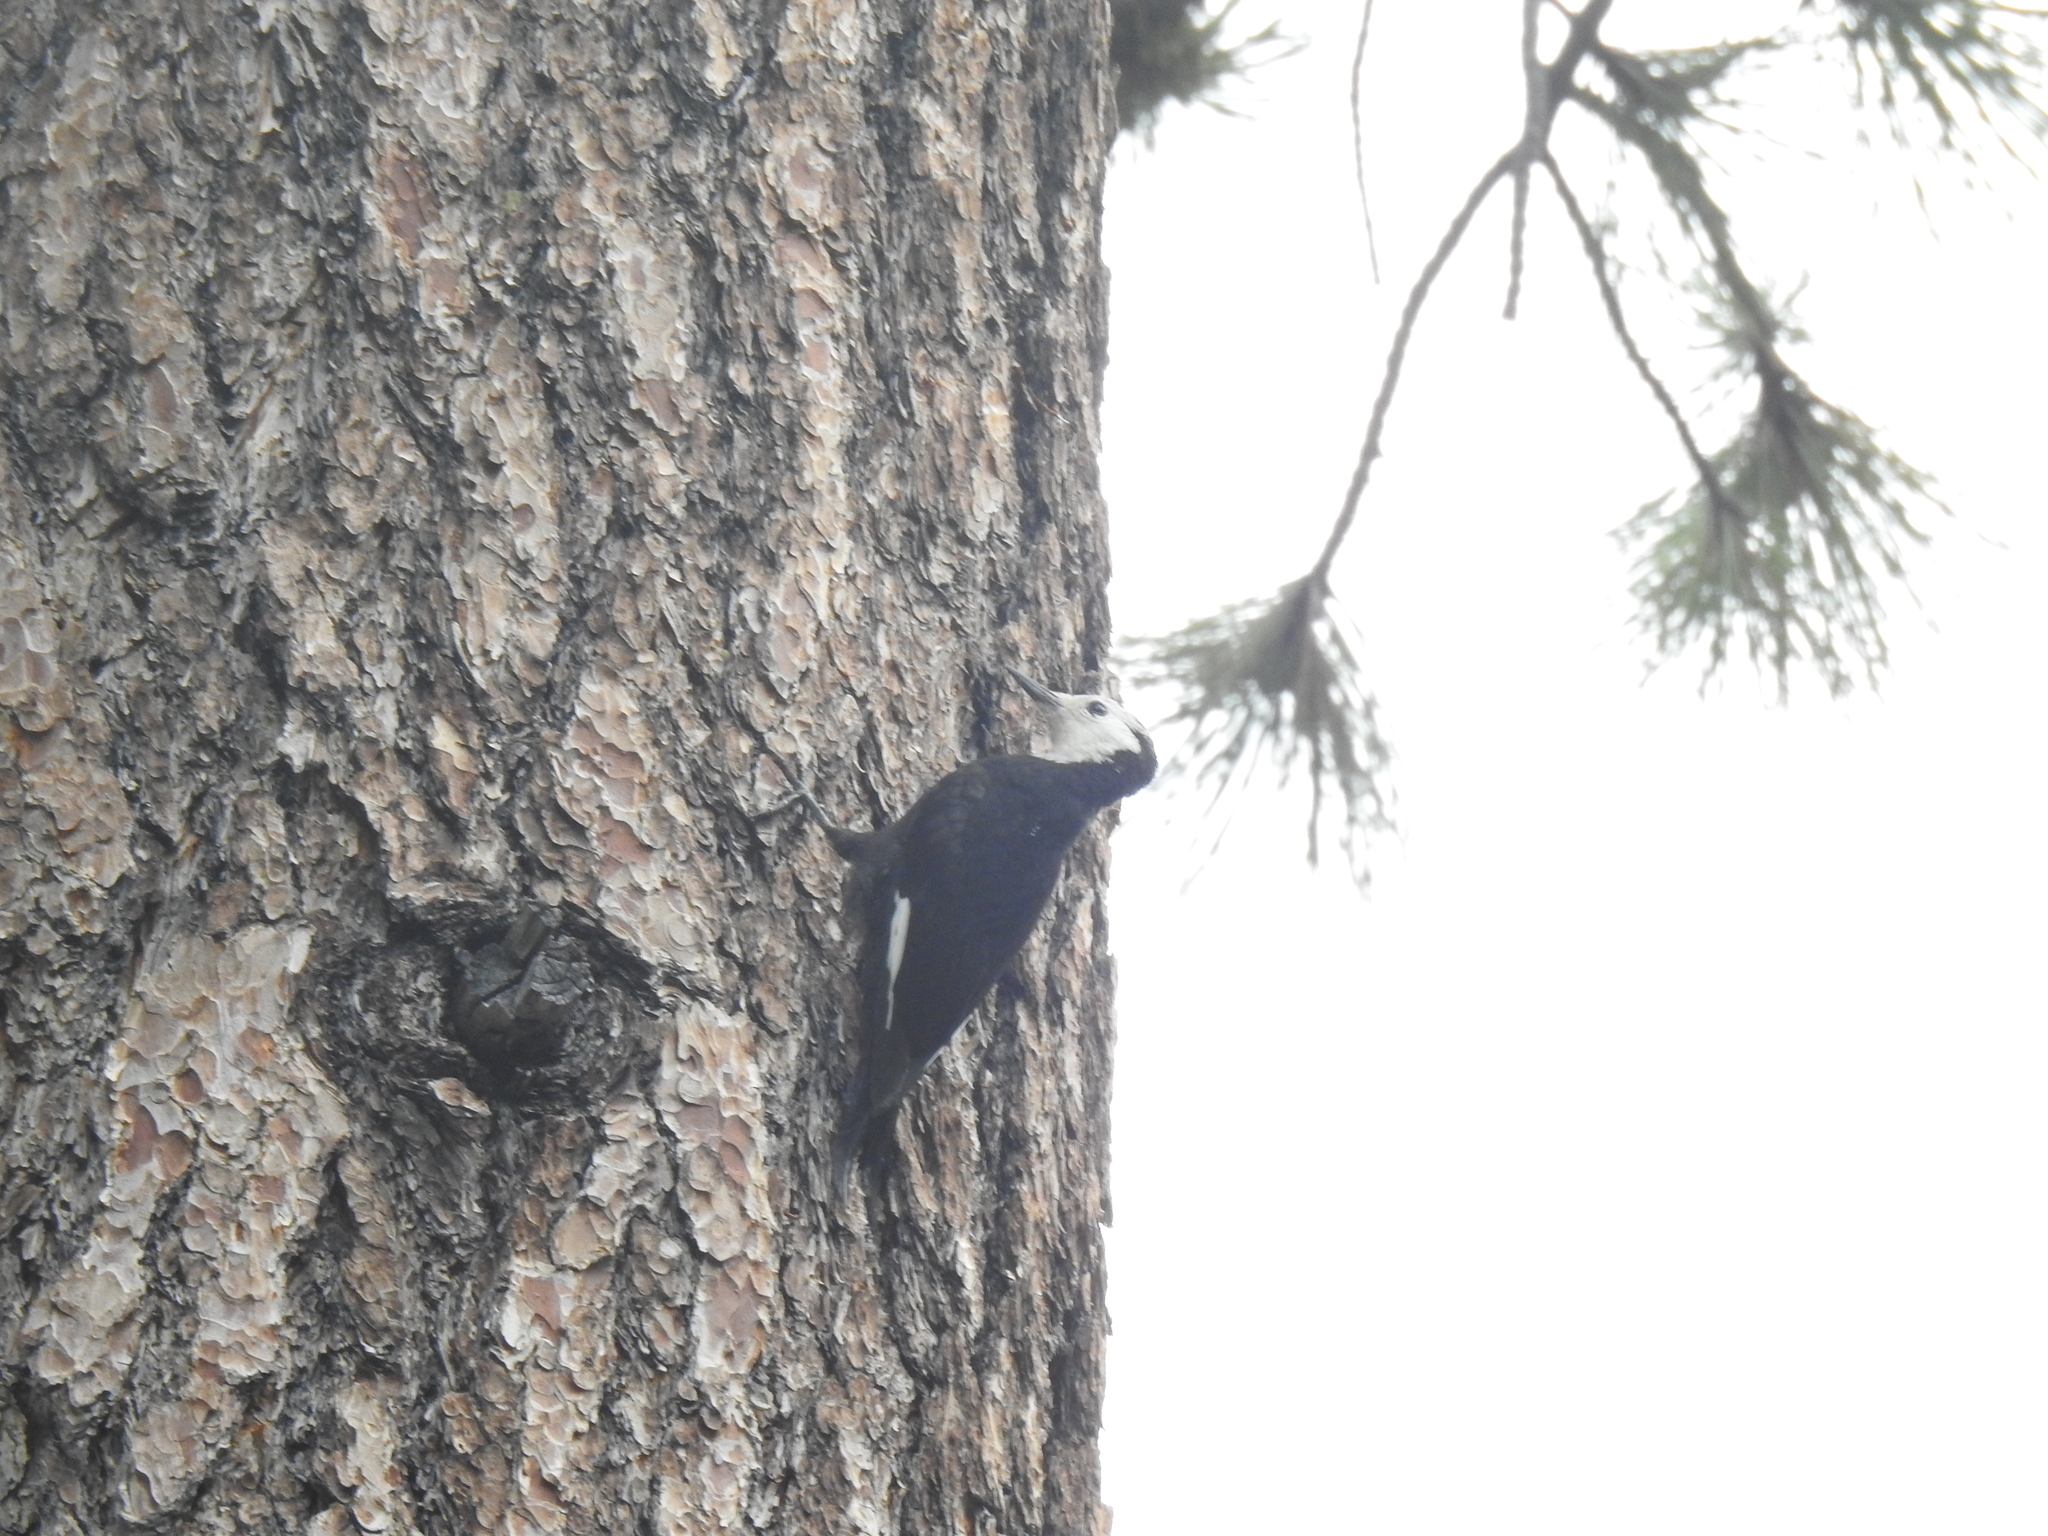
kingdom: Animalia
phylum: Chordata
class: Aves
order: Piciformes
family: Picidae
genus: Leuconotopicus
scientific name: Leuconotopicus albolarvatus
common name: White-headed woodpecker
